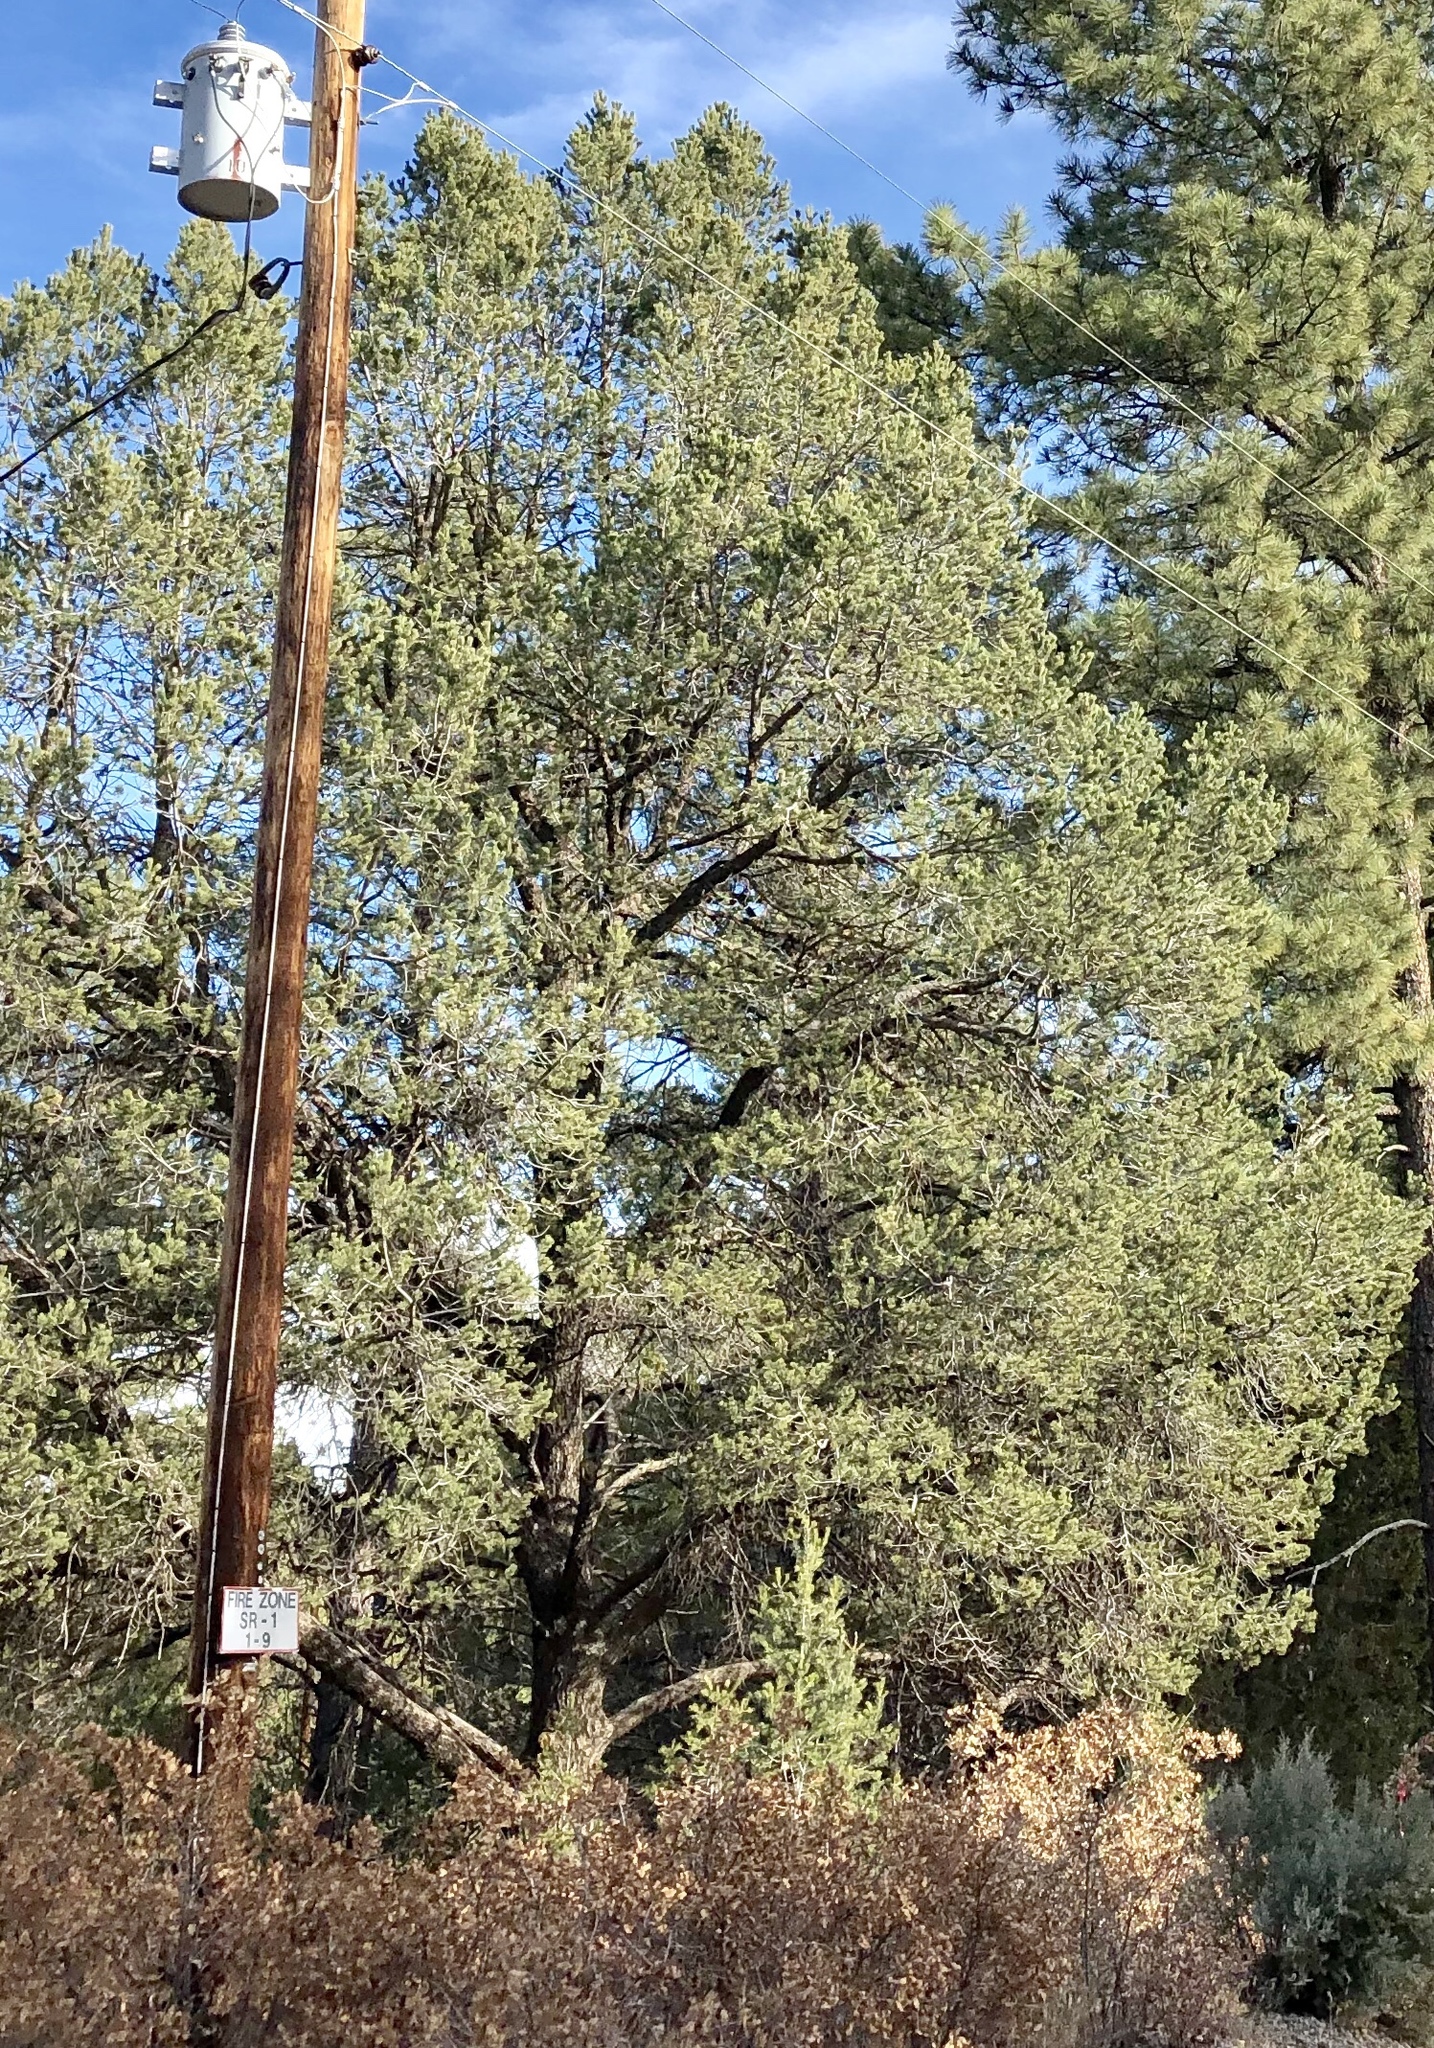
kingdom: Plantae
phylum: Tracheophyta
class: Pinopsida
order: Pinales
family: Pinaceae
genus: Pinus
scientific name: Pinus edulis
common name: Colorado pinyon
